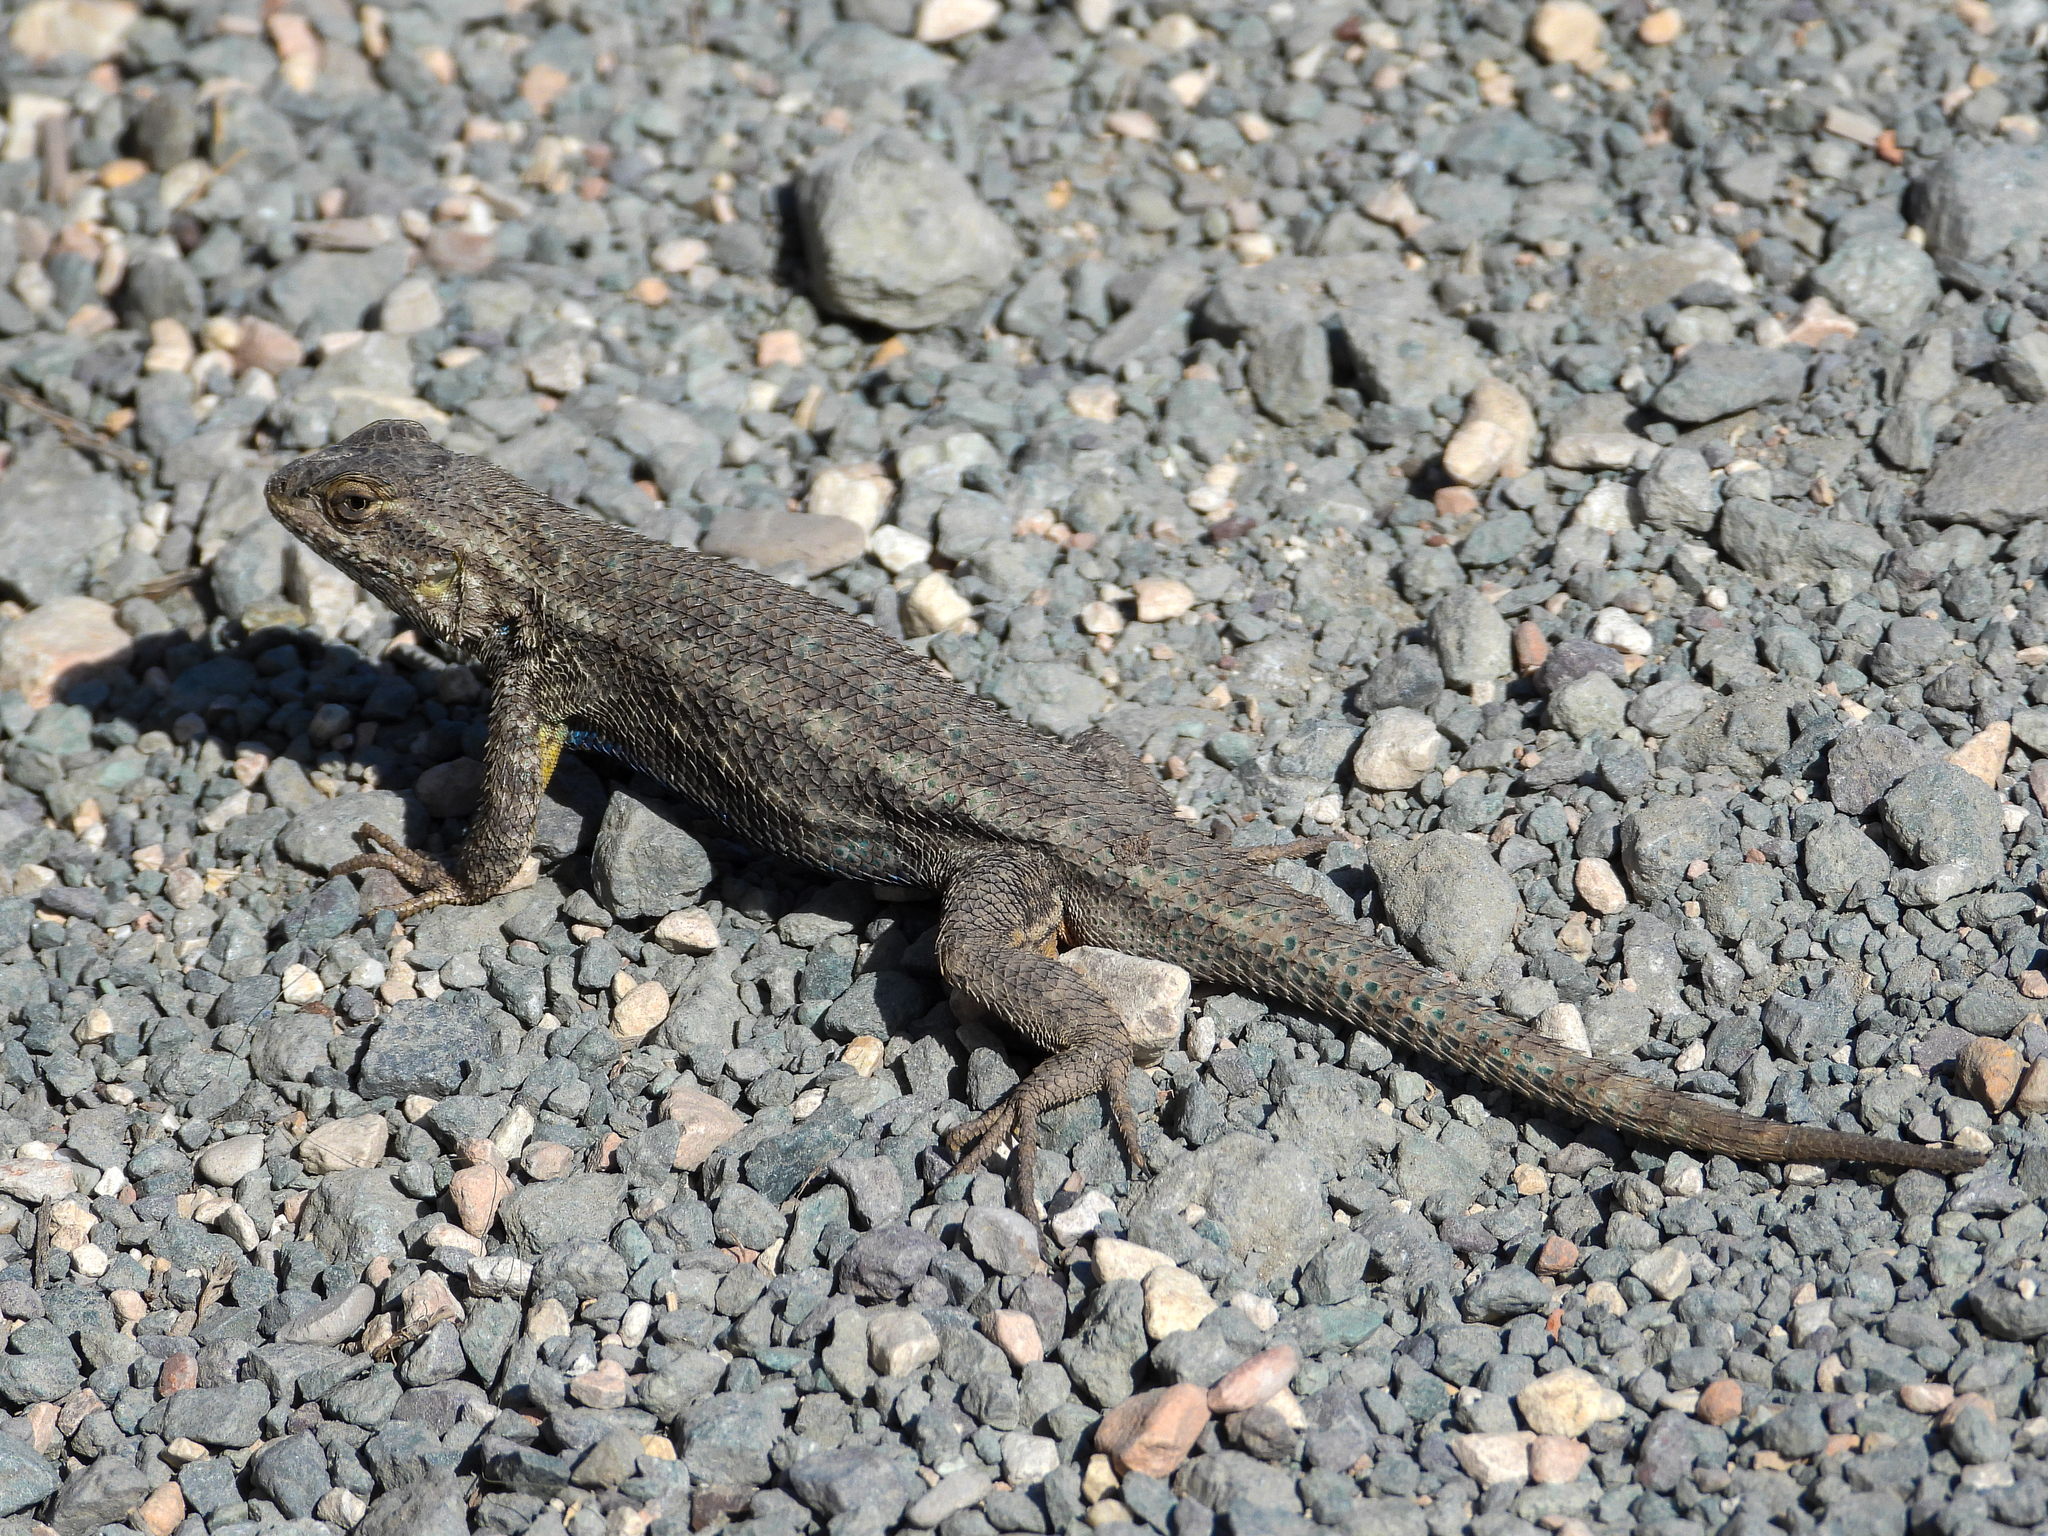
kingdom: Animalia
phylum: Chordata
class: Squamata
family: Phrynosomatidae
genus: Sceloporus
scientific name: Sceloporus occidentalis
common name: Western fence lizard
